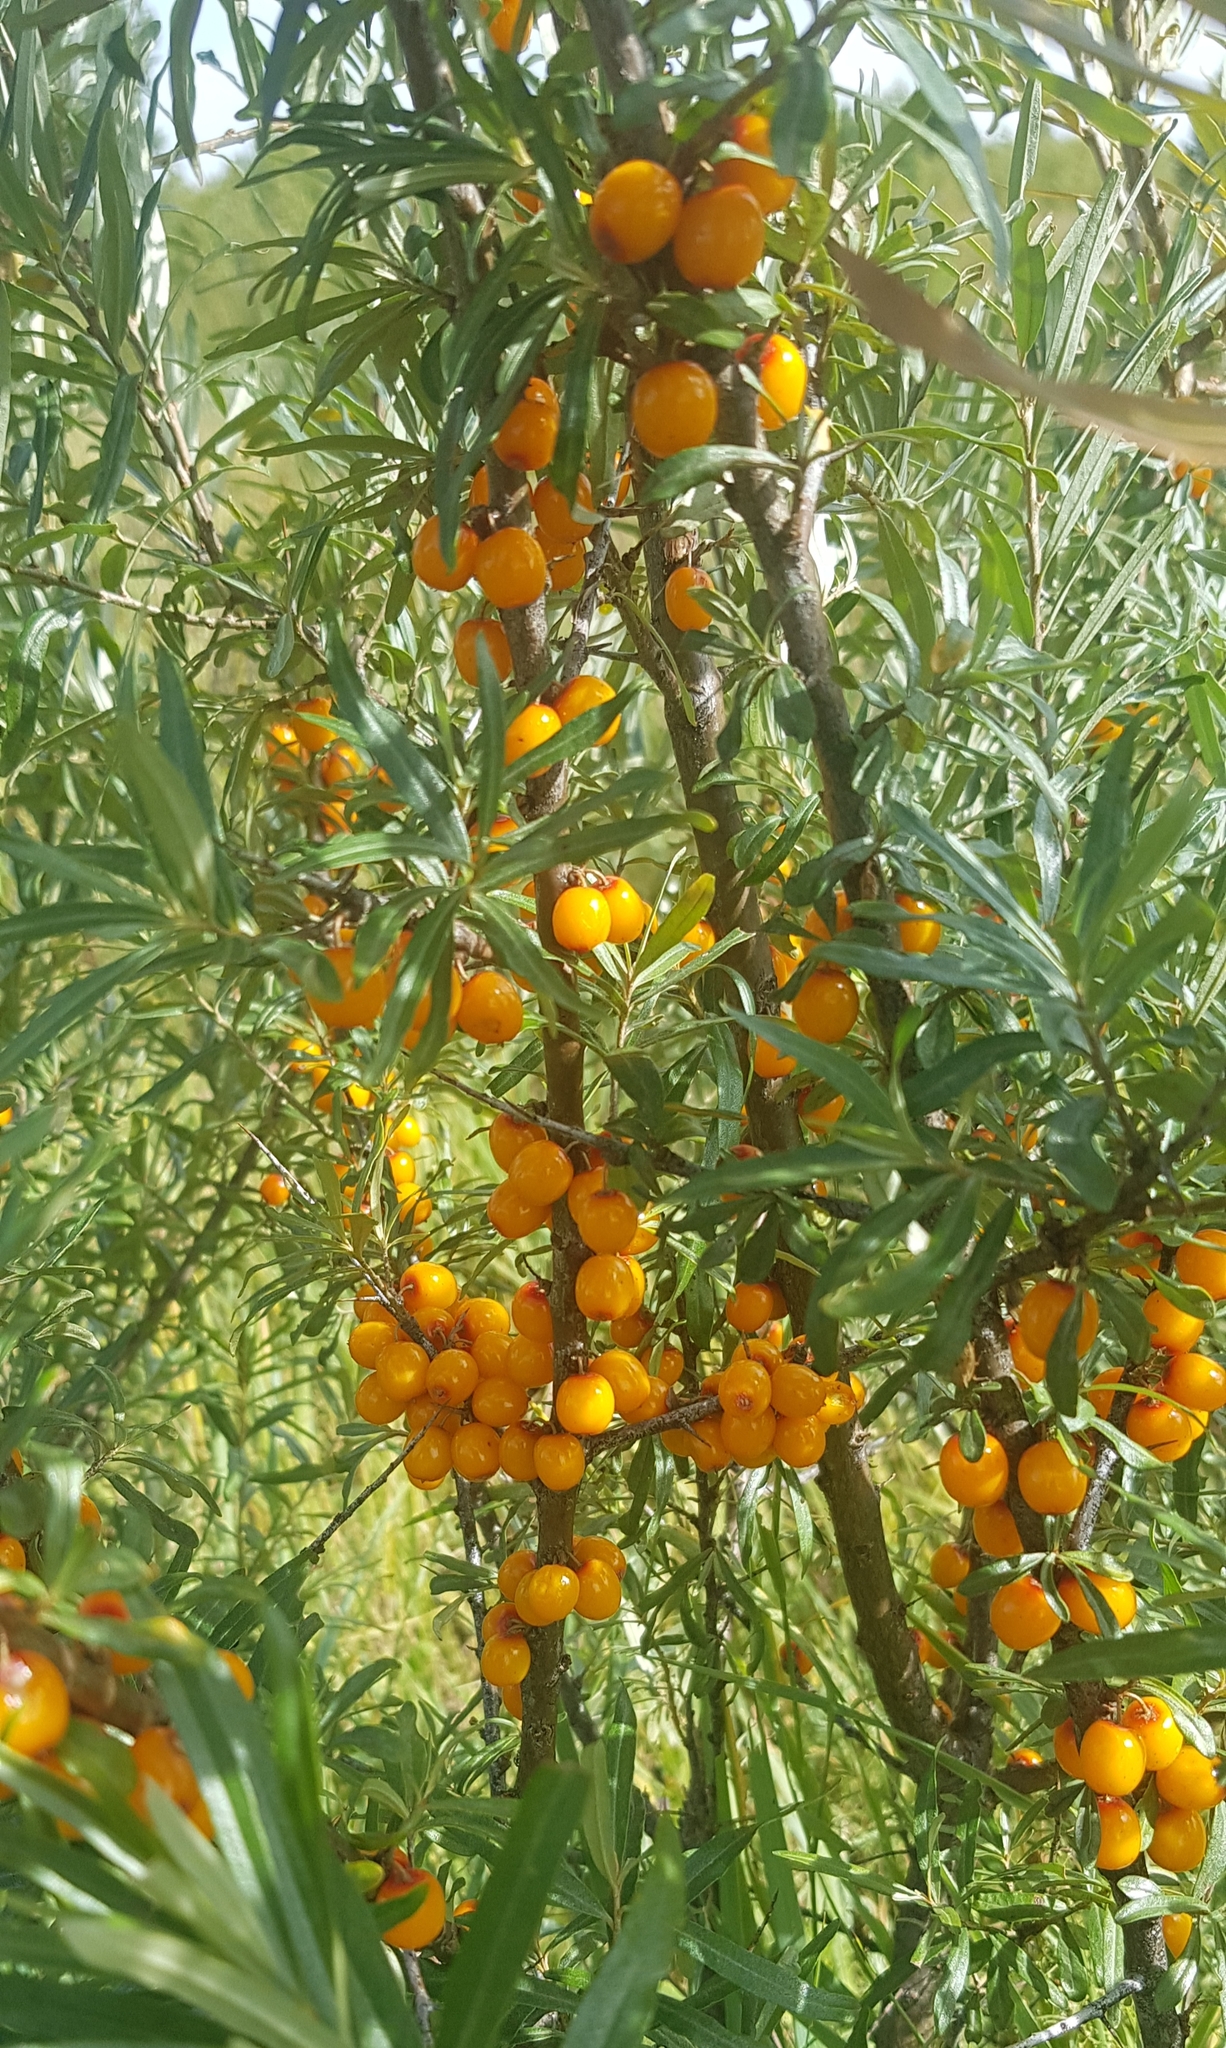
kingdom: Plantae
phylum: Tracheophyta
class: Magnoliopsida
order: Rosales
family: Elaeagnaceae
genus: Hippophae
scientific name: Hippophae rhamnoides
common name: Sea-buckthorn
